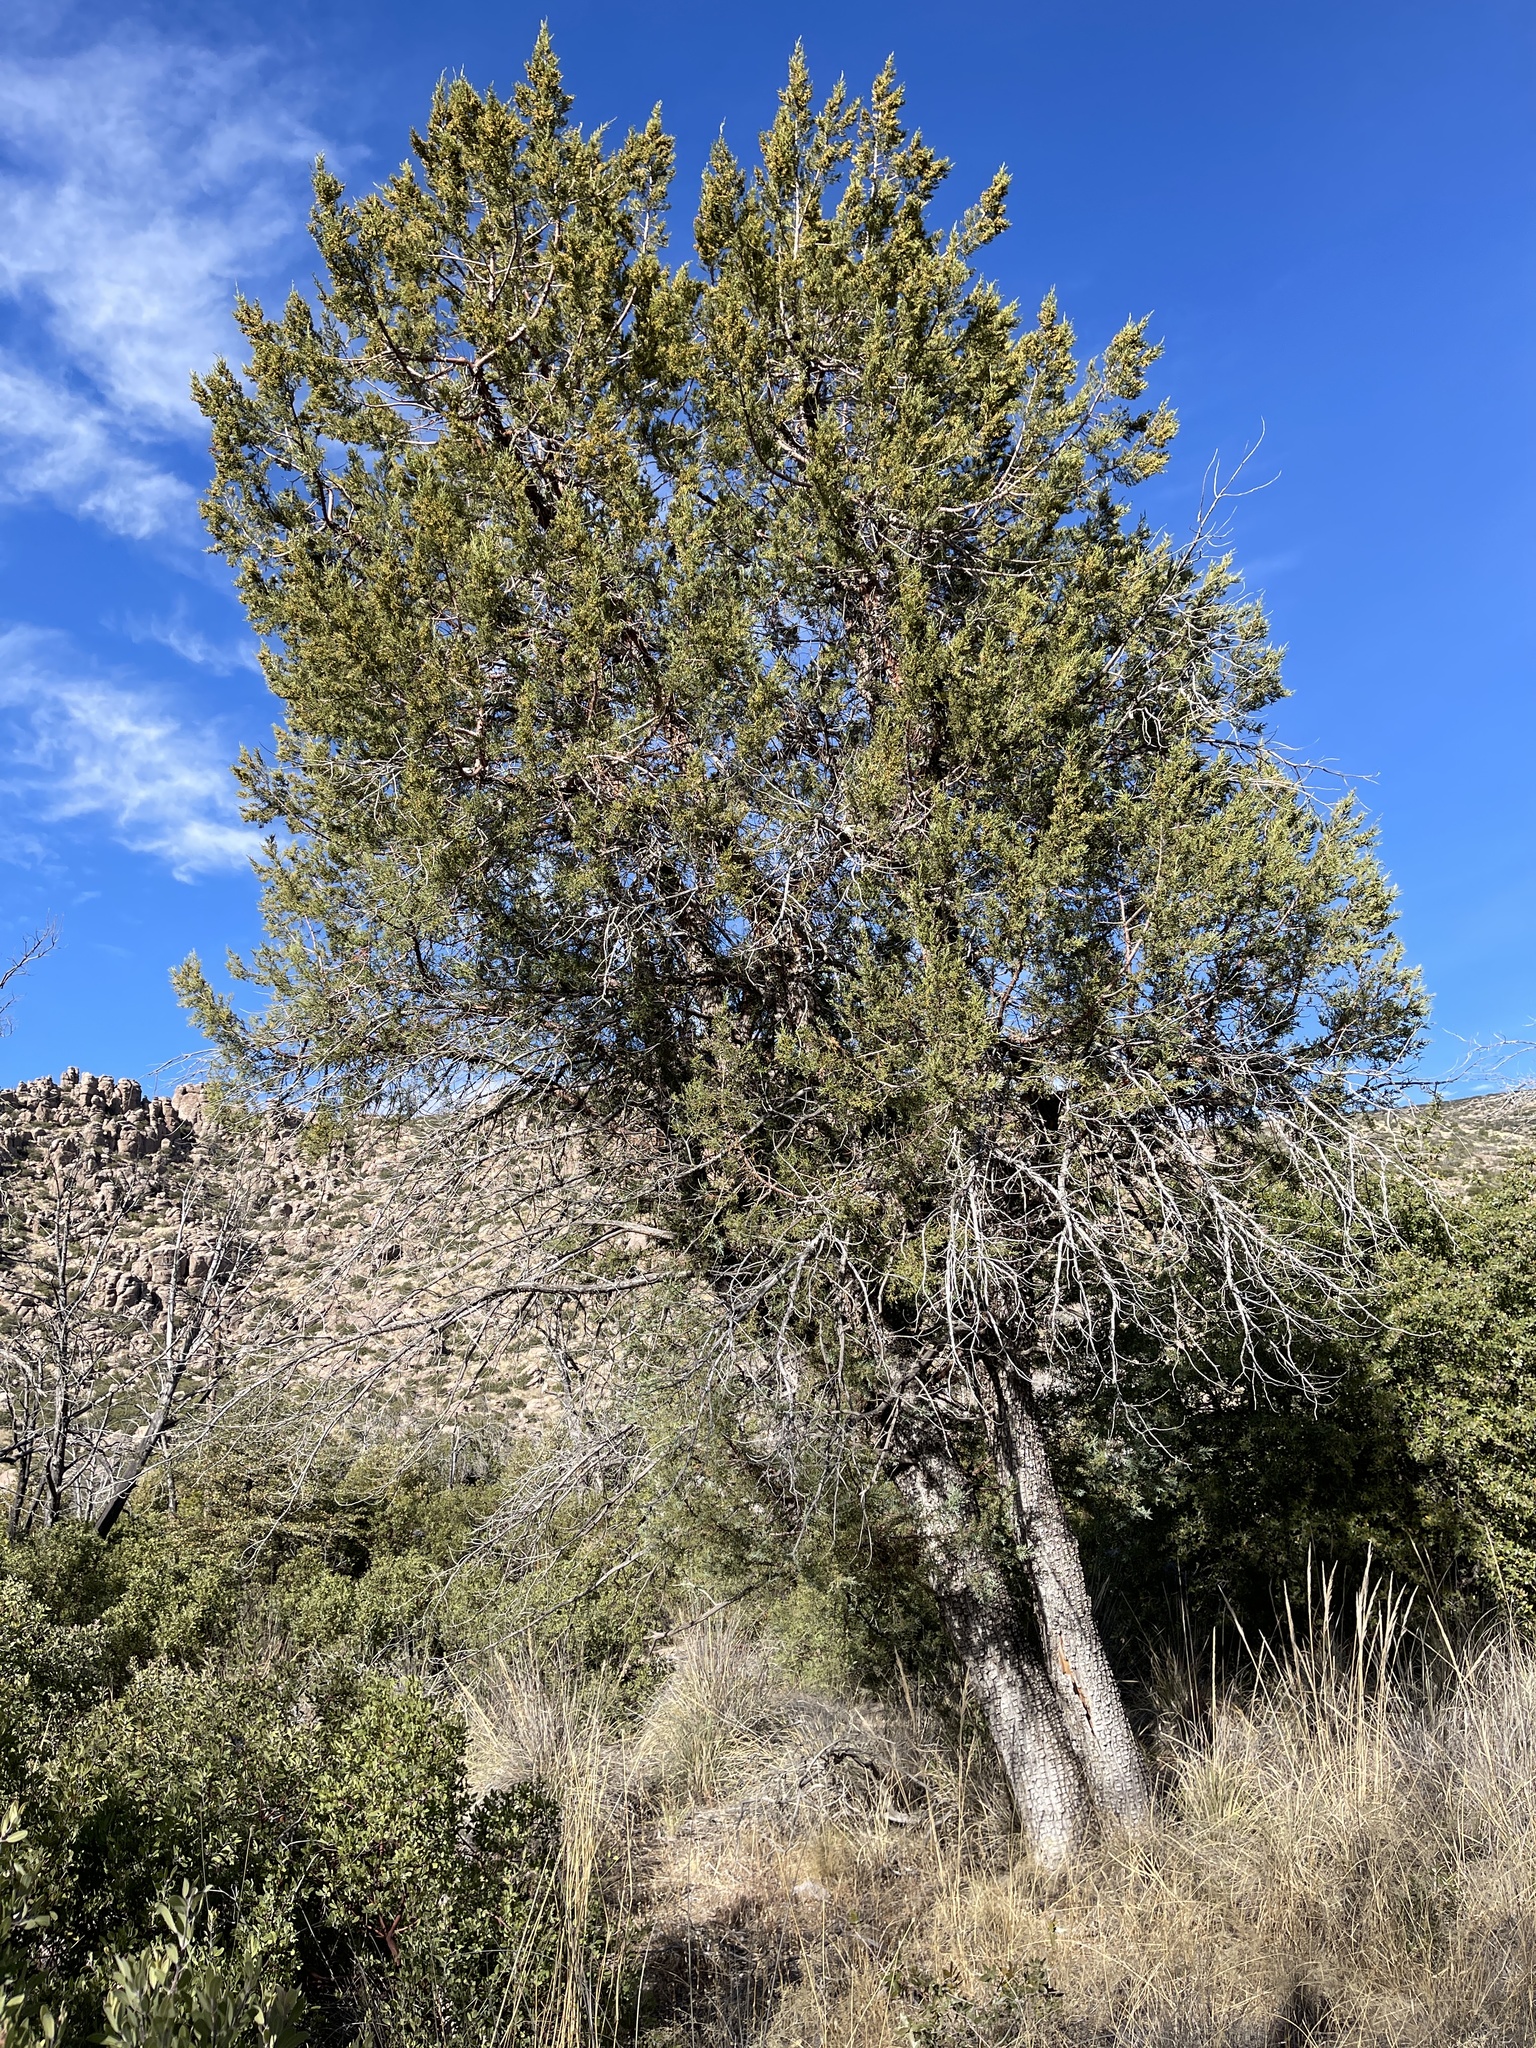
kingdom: Plantae
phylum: Tracheophyta
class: Pinopsida
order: Pinales
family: Cupressaceae
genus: Juniperus
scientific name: Juniperus deppeana
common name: Alligator juniper
